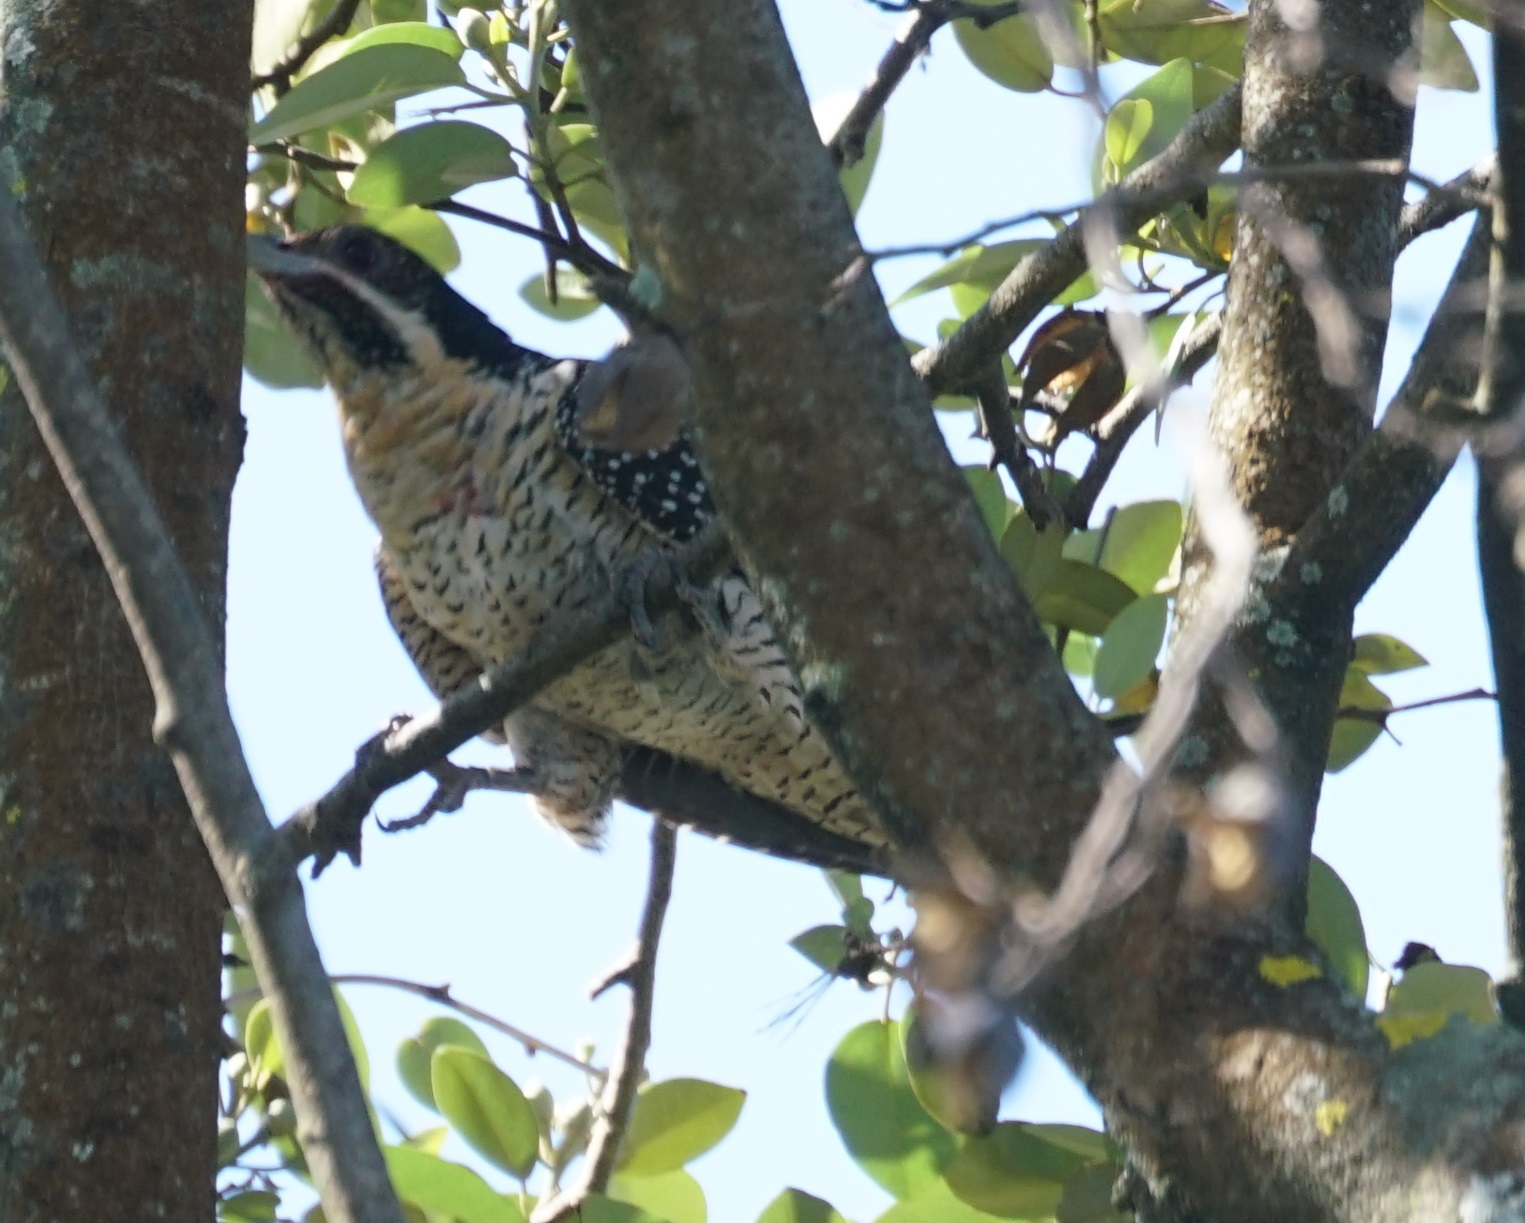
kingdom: Animalia
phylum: Chordata
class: Aves
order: Cuculiformes
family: Cuculidae
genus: Eudynamys
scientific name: Eudynamys orientalis
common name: Pacific koel
